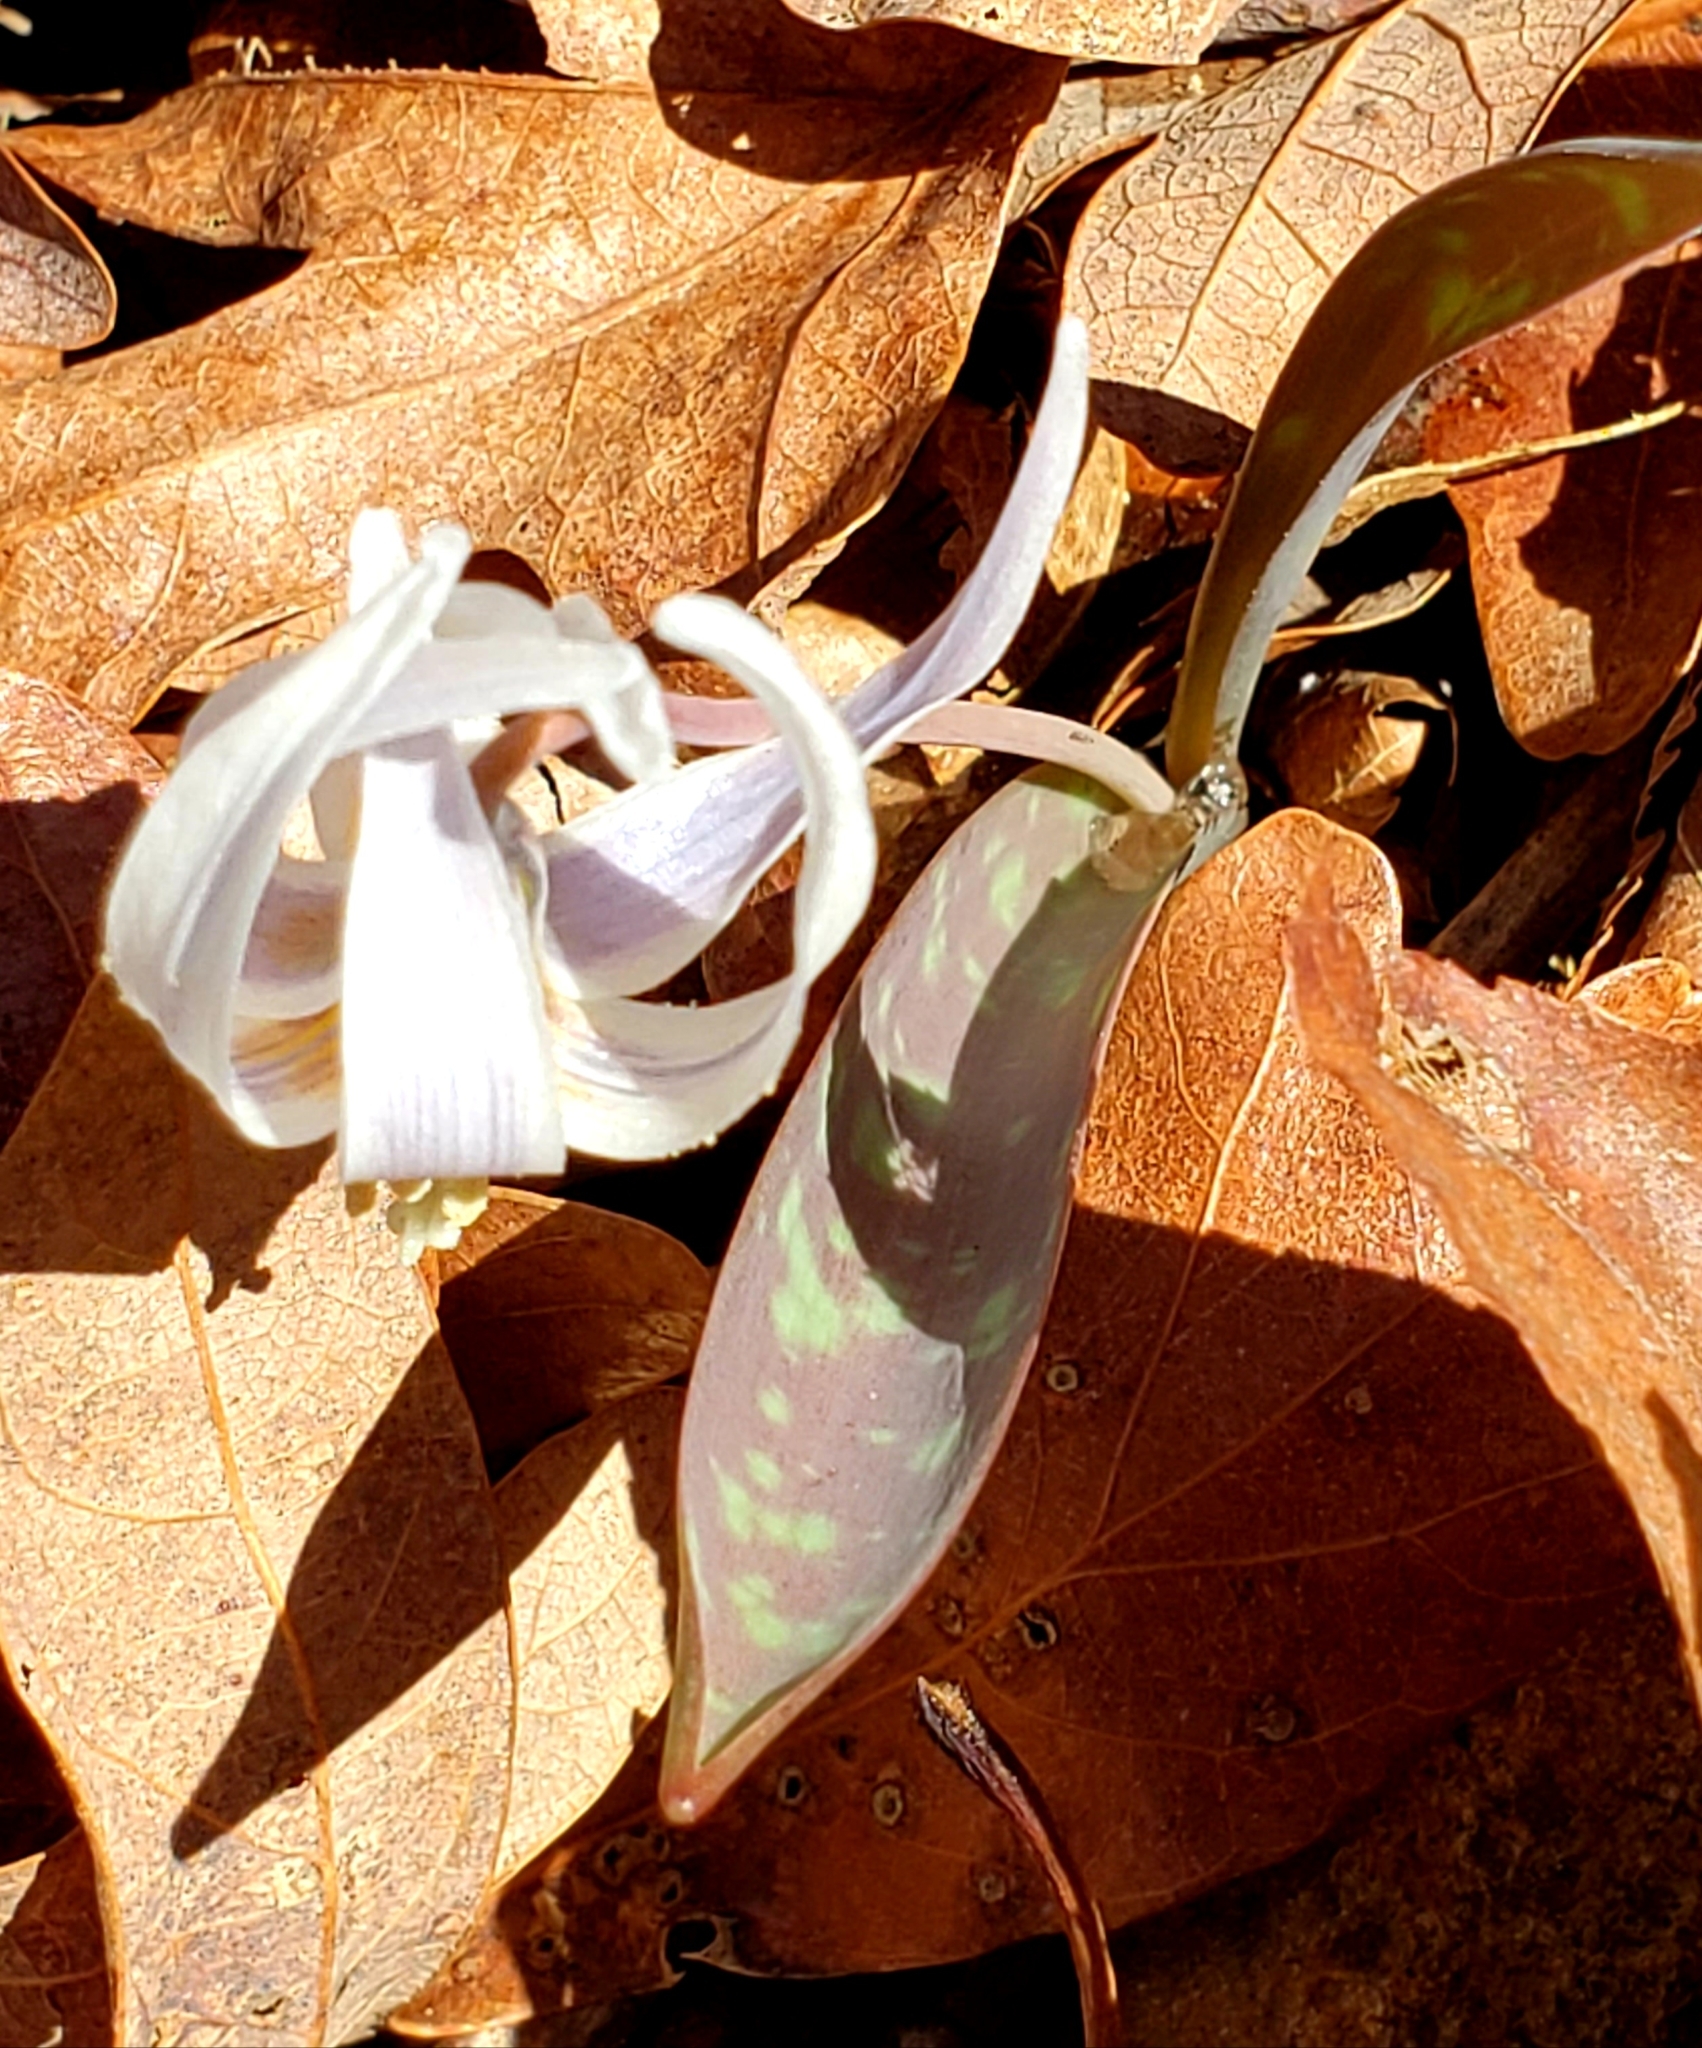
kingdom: Plantae
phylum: Tracheophyta
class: Liliopsida
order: Liliales
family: Liliaceae
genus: Erythronium
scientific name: Erythronium albidum
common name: White trout-lily
